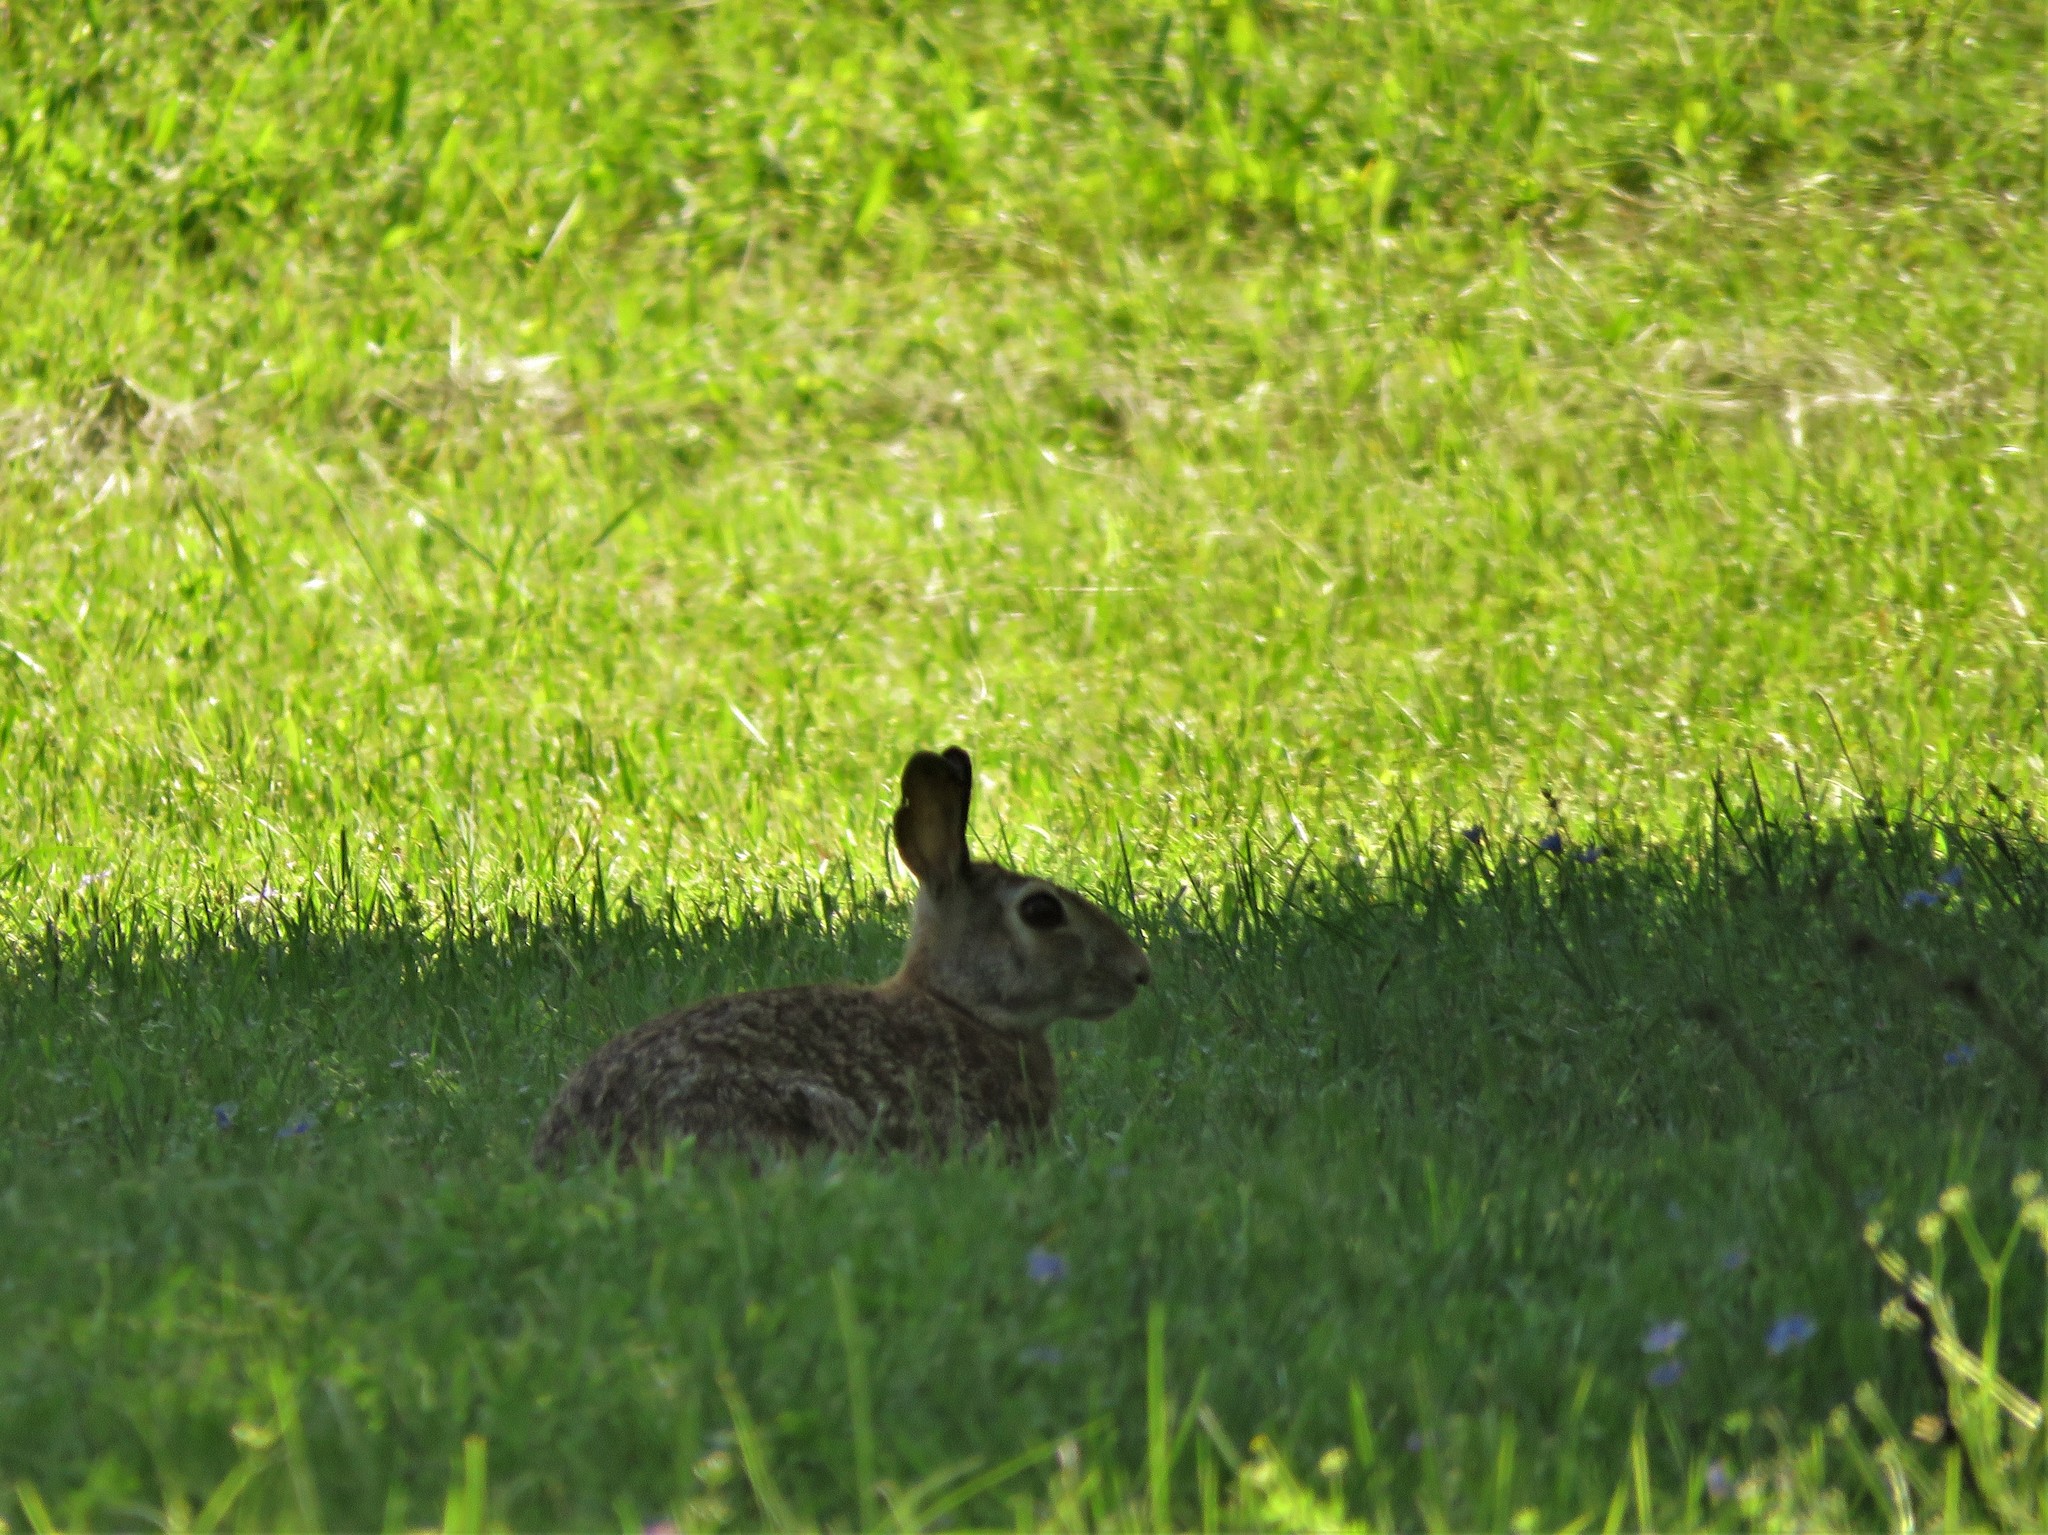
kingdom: Animalia
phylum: Chordata
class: Mammalia
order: Lagomorpha
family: Leporidae
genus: Sylvilagus
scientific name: Sylvilagus floridanus
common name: Eastern cottontail
